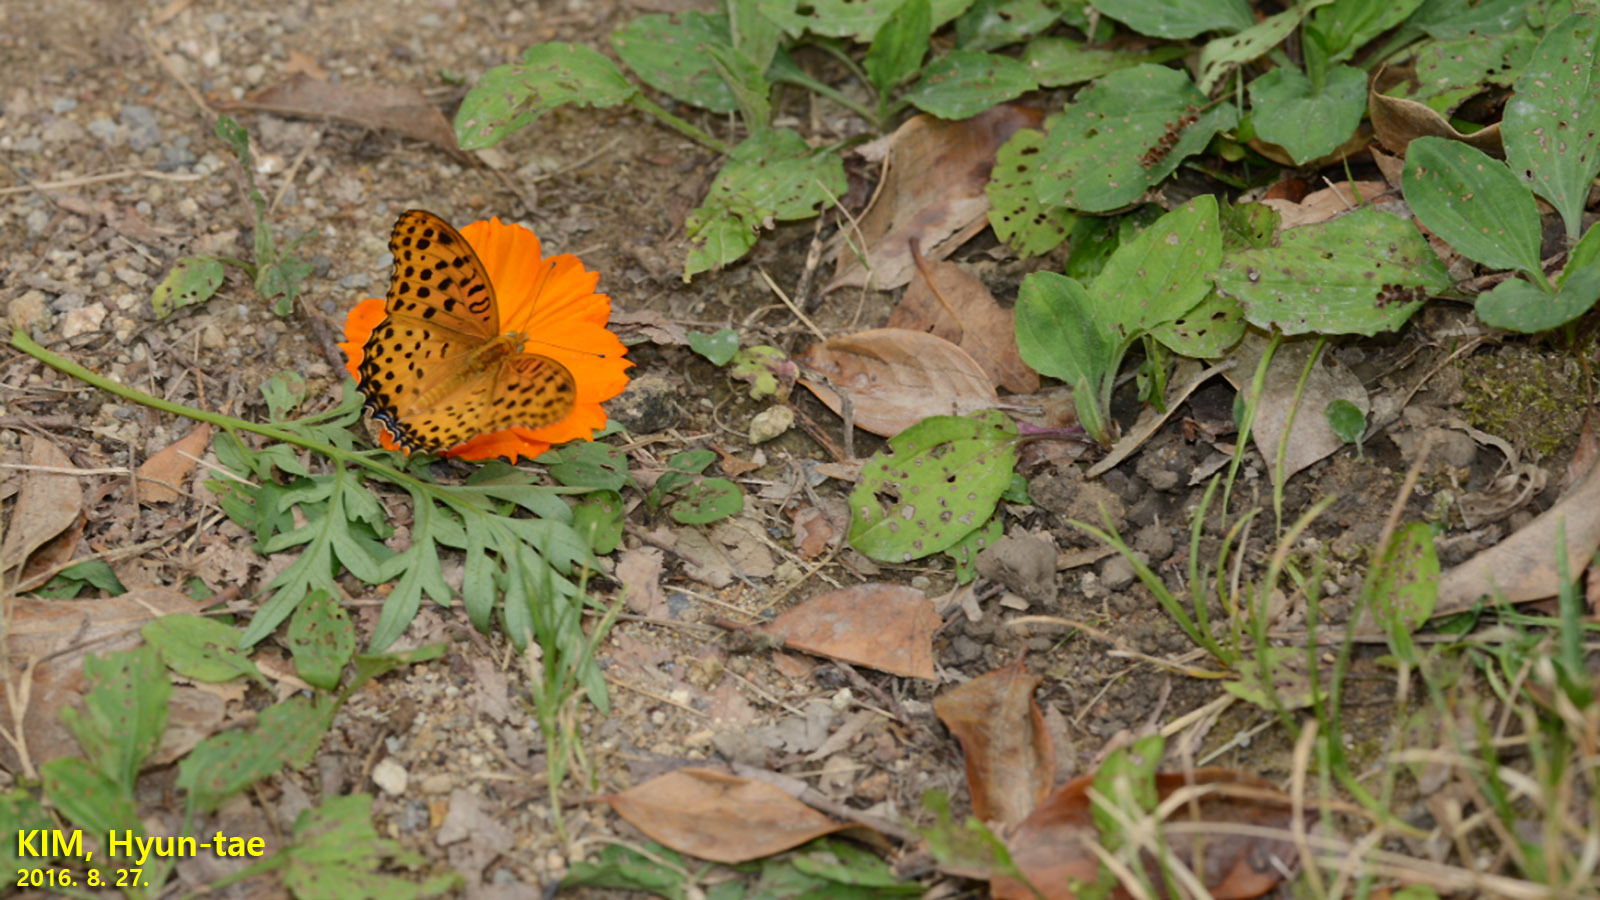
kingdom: Animalia
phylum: Arthropoda
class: Insecta
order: Lepidoptera
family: Nymphalidae
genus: Argynnis
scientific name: Argynnis hyperbius
